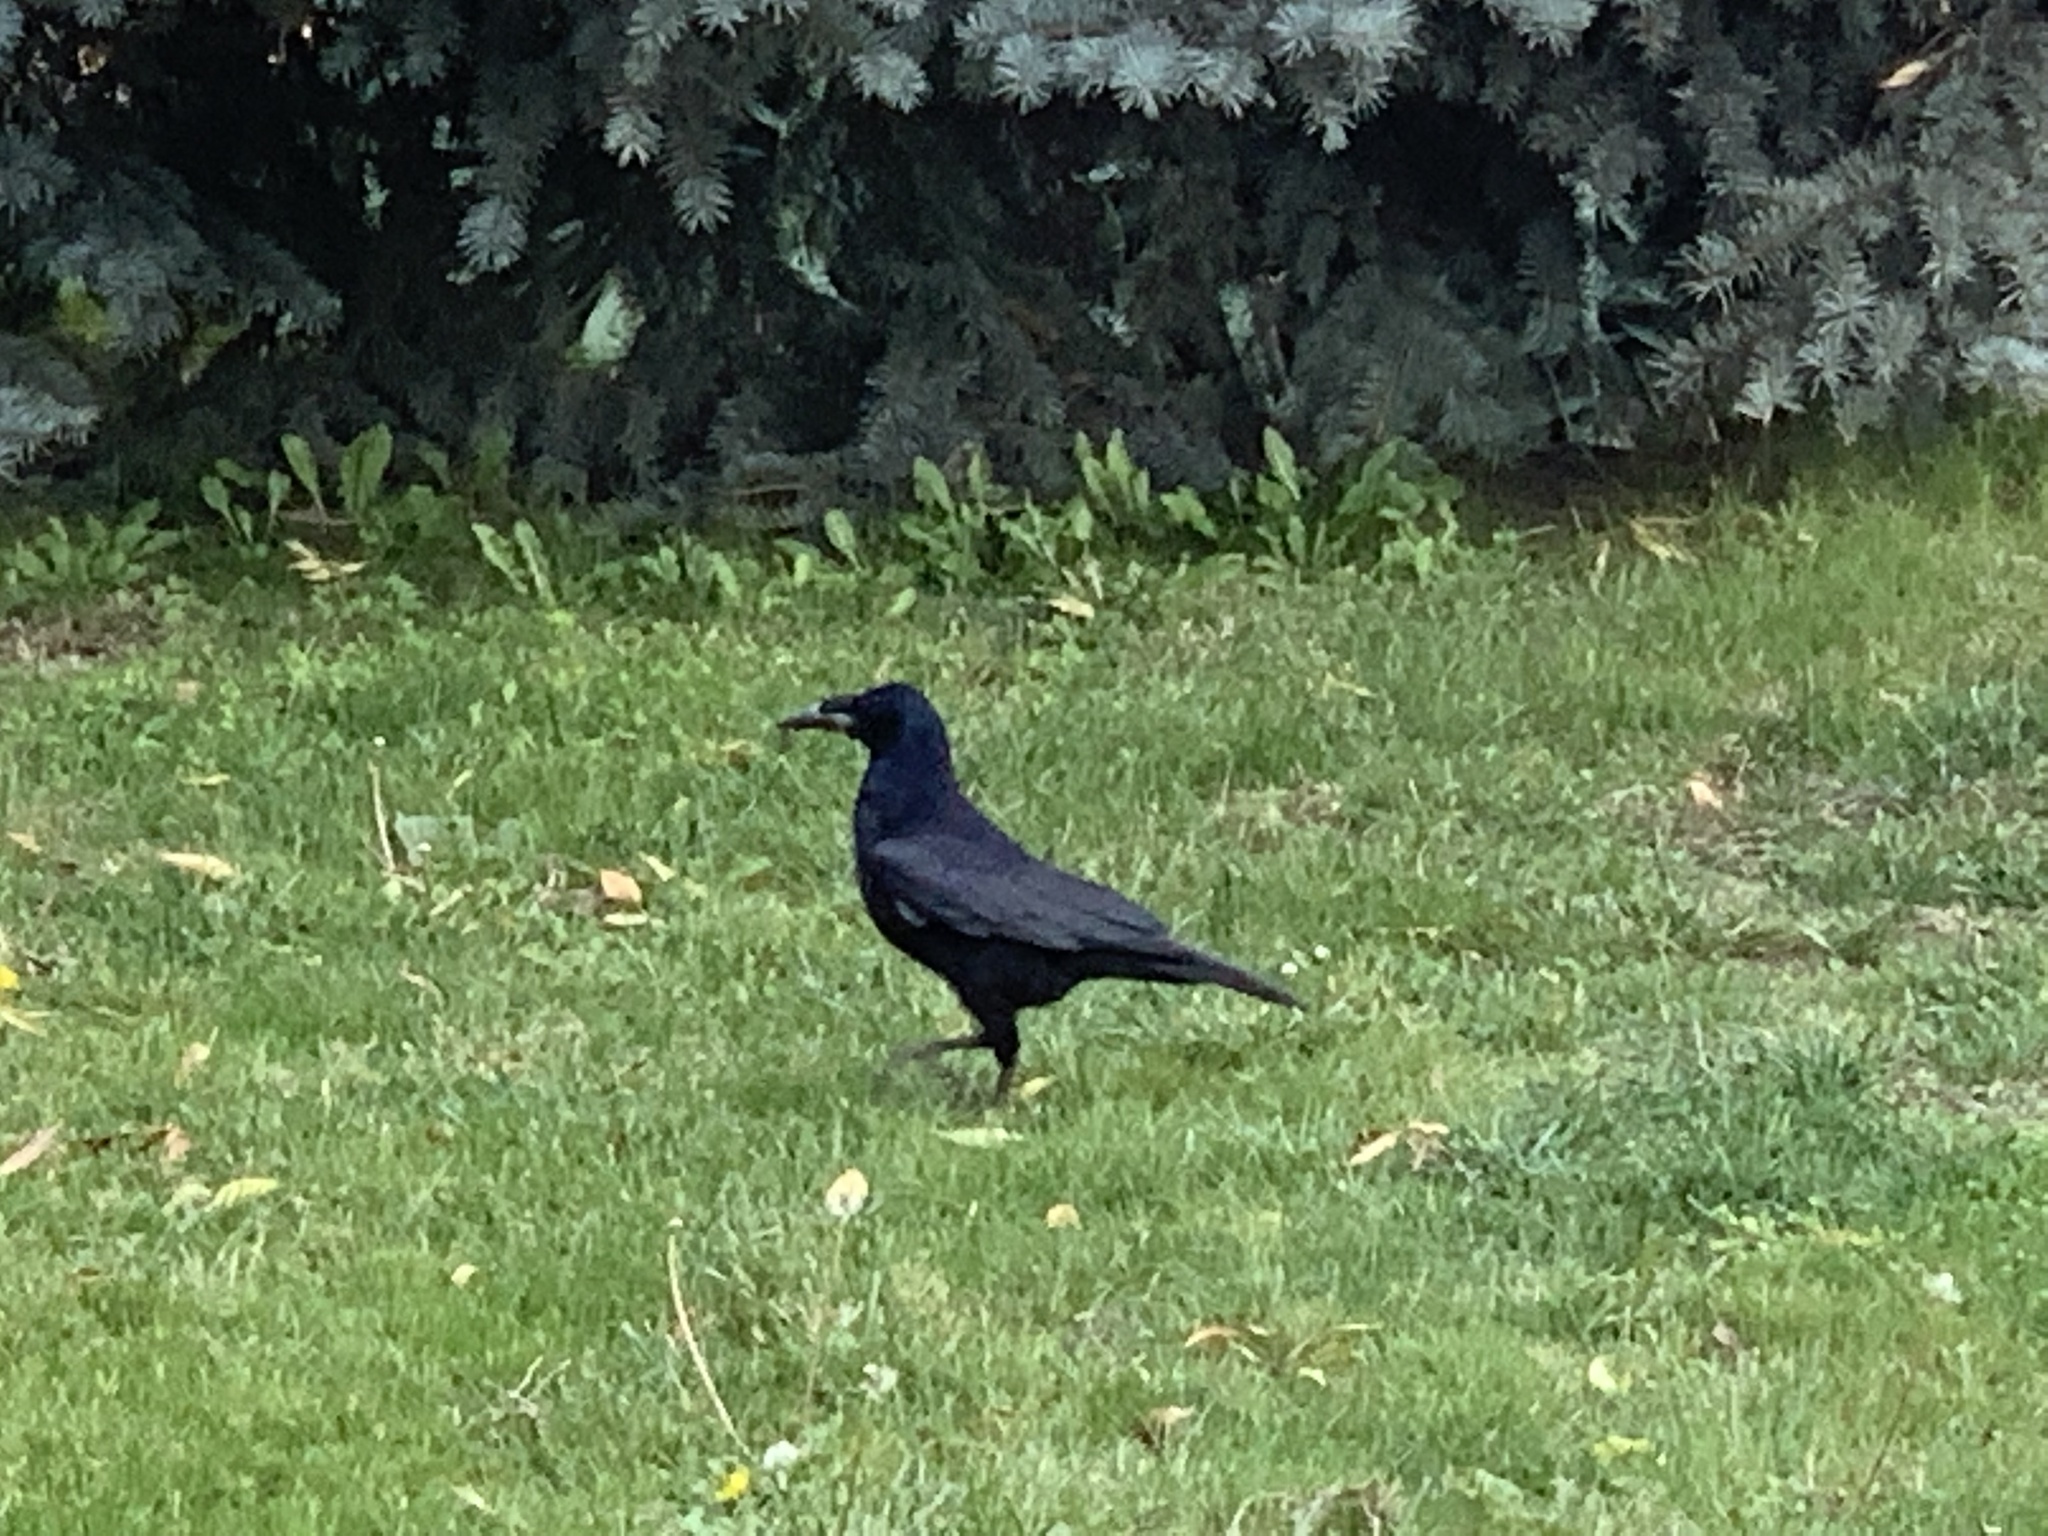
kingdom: Animalia
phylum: Chordata
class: Aves
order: Passeriformes
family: Corvidae
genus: Corvus
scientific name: Corvus frugilegus
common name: Rook
